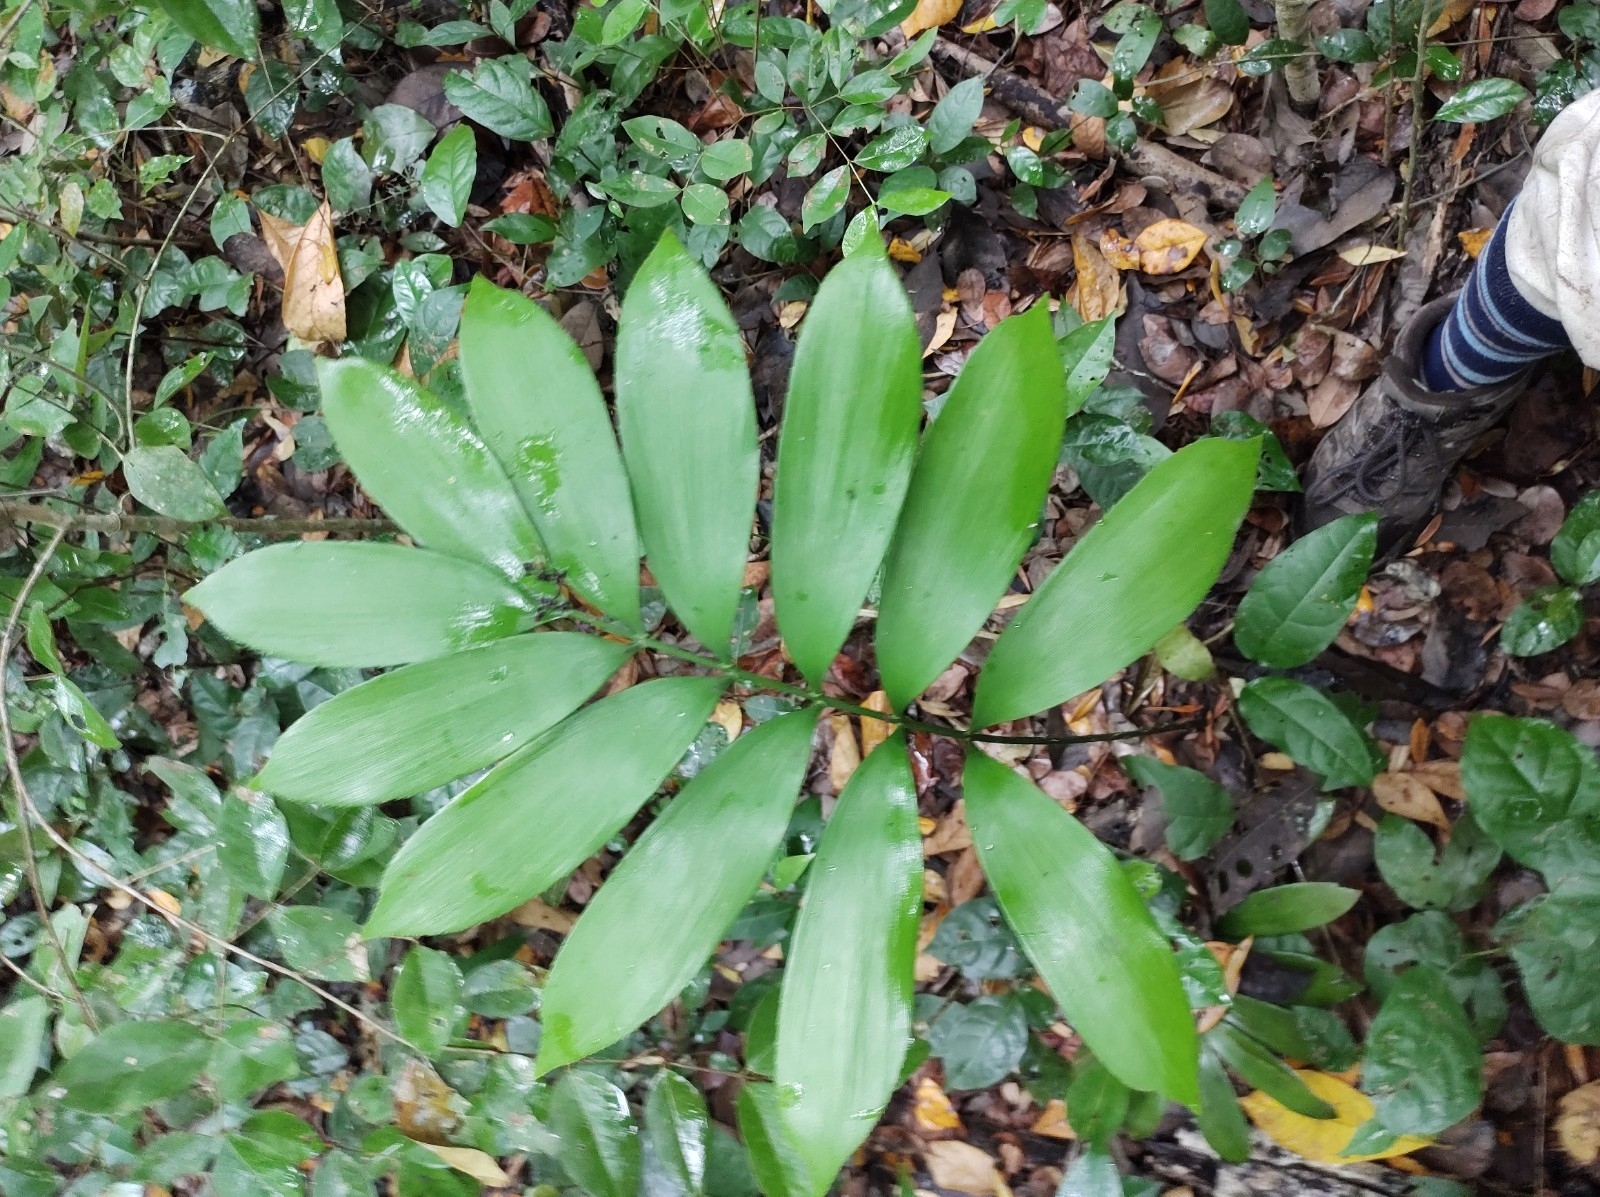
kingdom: Plantae
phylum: Tracheophyta
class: Cycadopsida
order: Cycadales
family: Zamiaceae
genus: Zamia
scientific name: Zamia prasina
